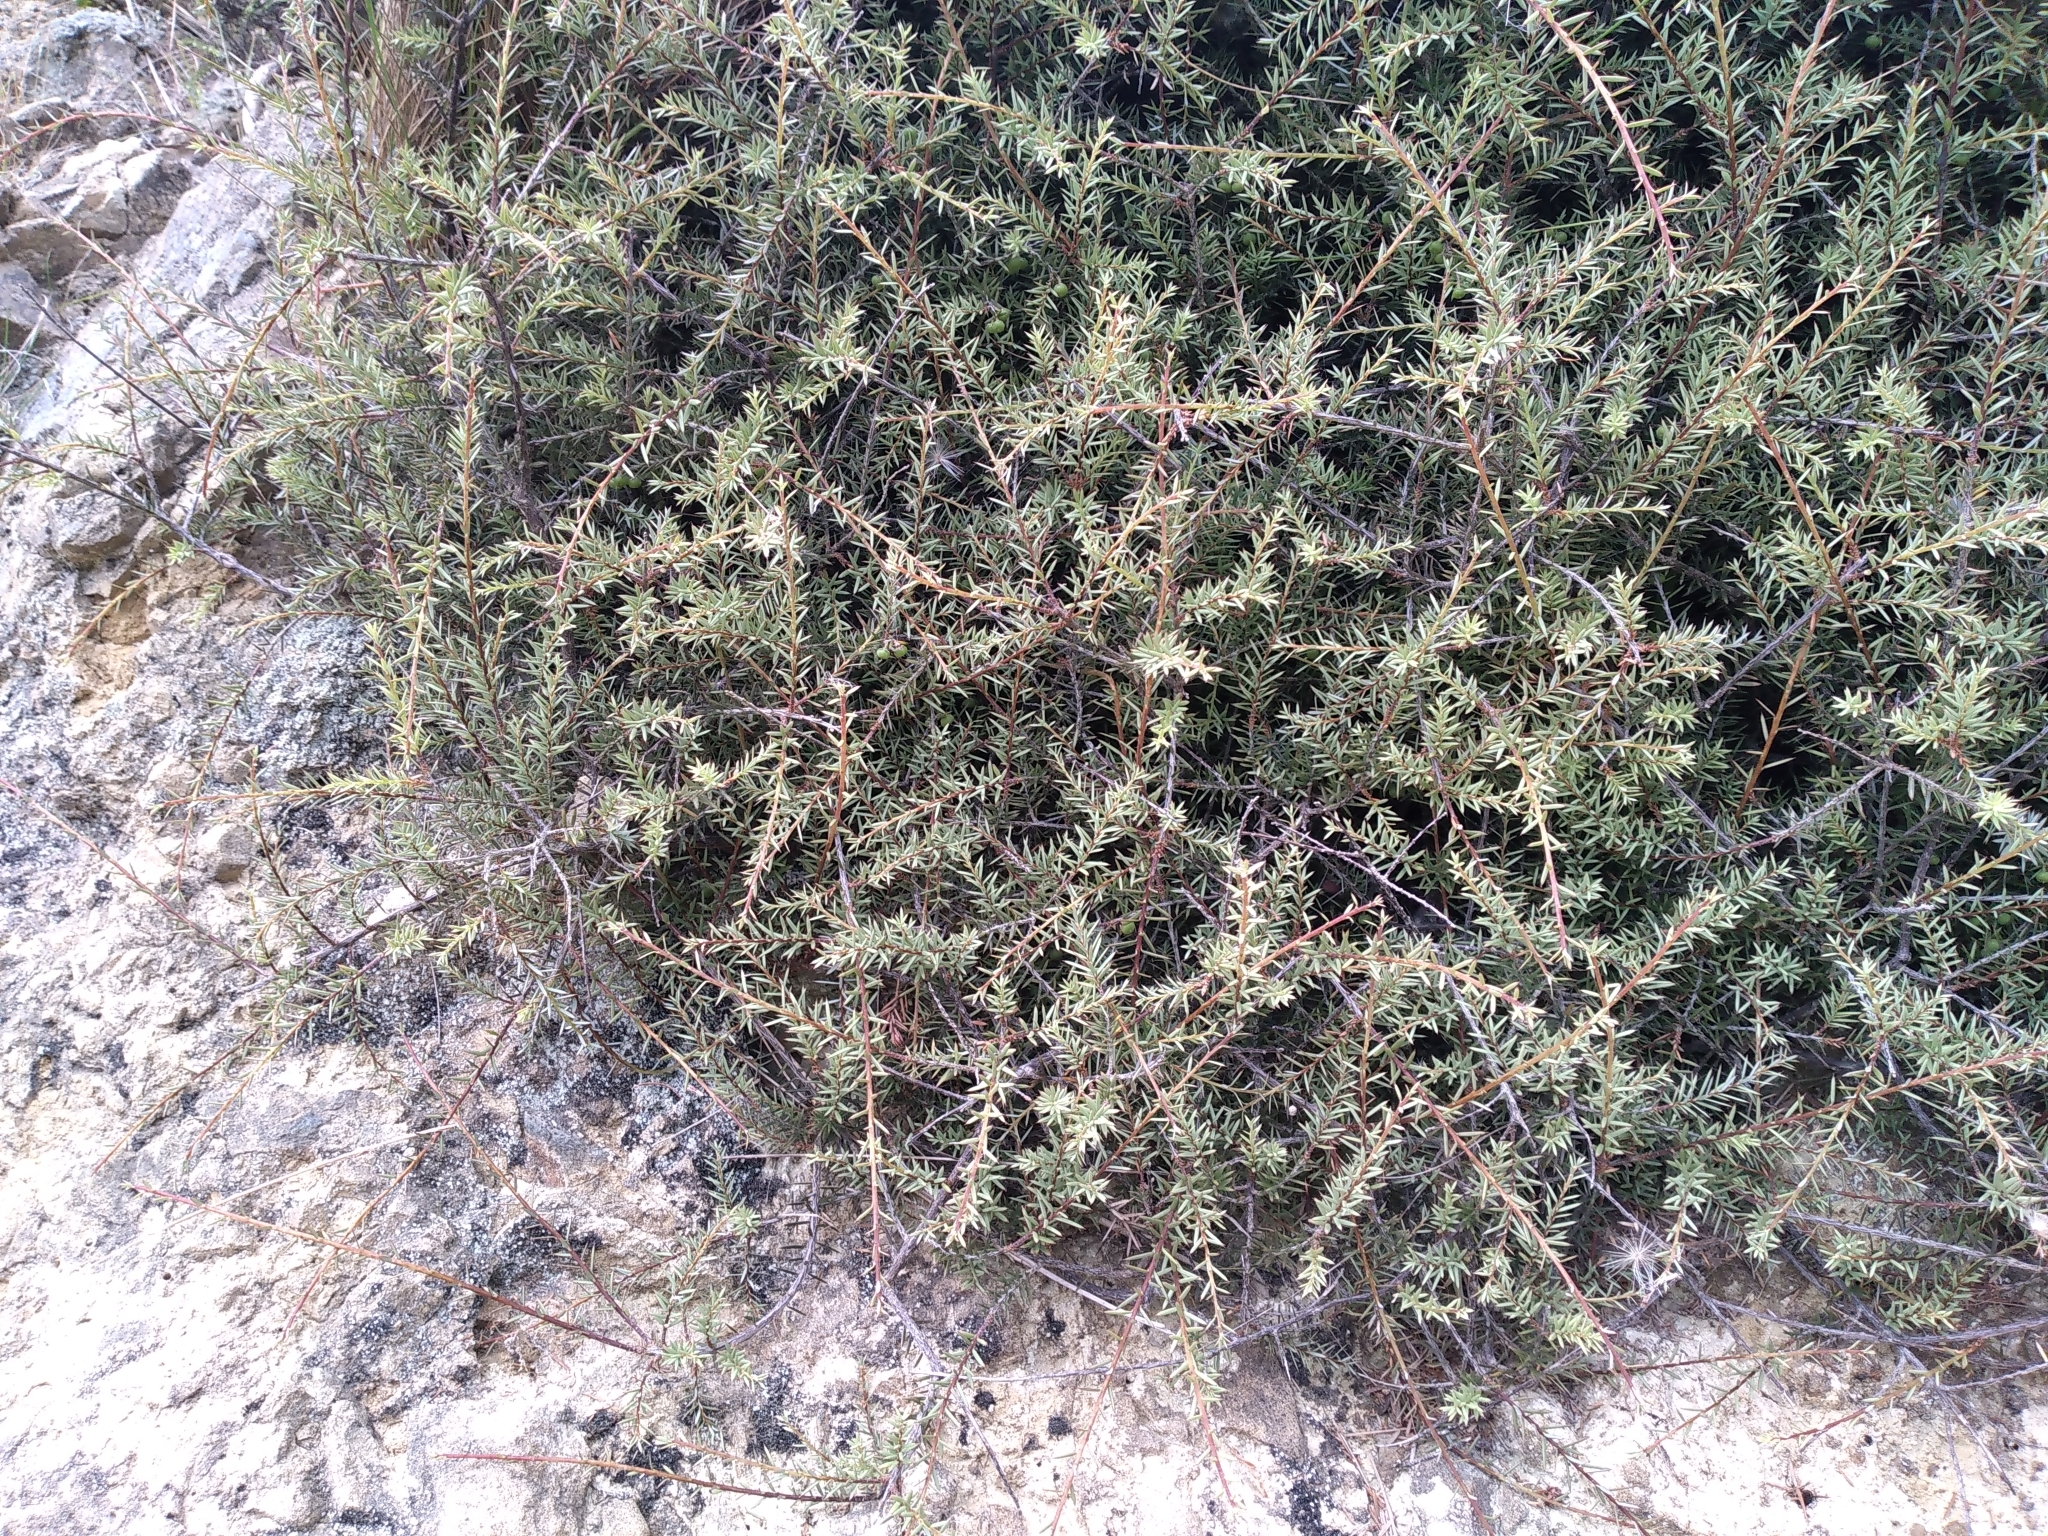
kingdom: Plantae
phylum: Tracheophyta
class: Magnoliopsida
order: Ericales
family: Ericaceae
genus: Leptecophylla
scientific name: Leptecophylla juniperina
